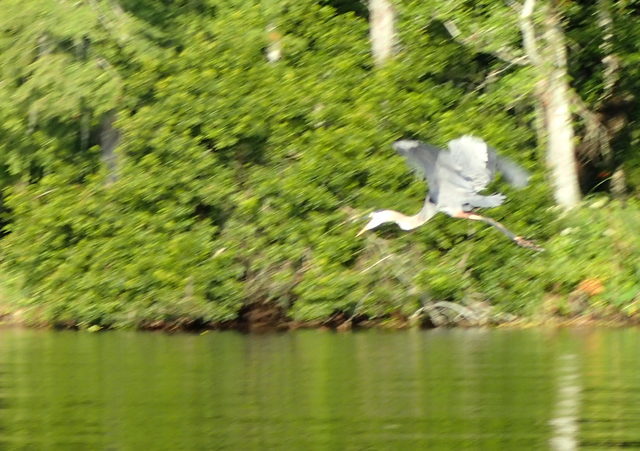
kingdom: Animalia
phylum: Chordata
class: Aves
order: Pelecaniformes
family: Ardeidae
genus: Ardea
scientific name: Ardea herodias
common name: Great blue heron
